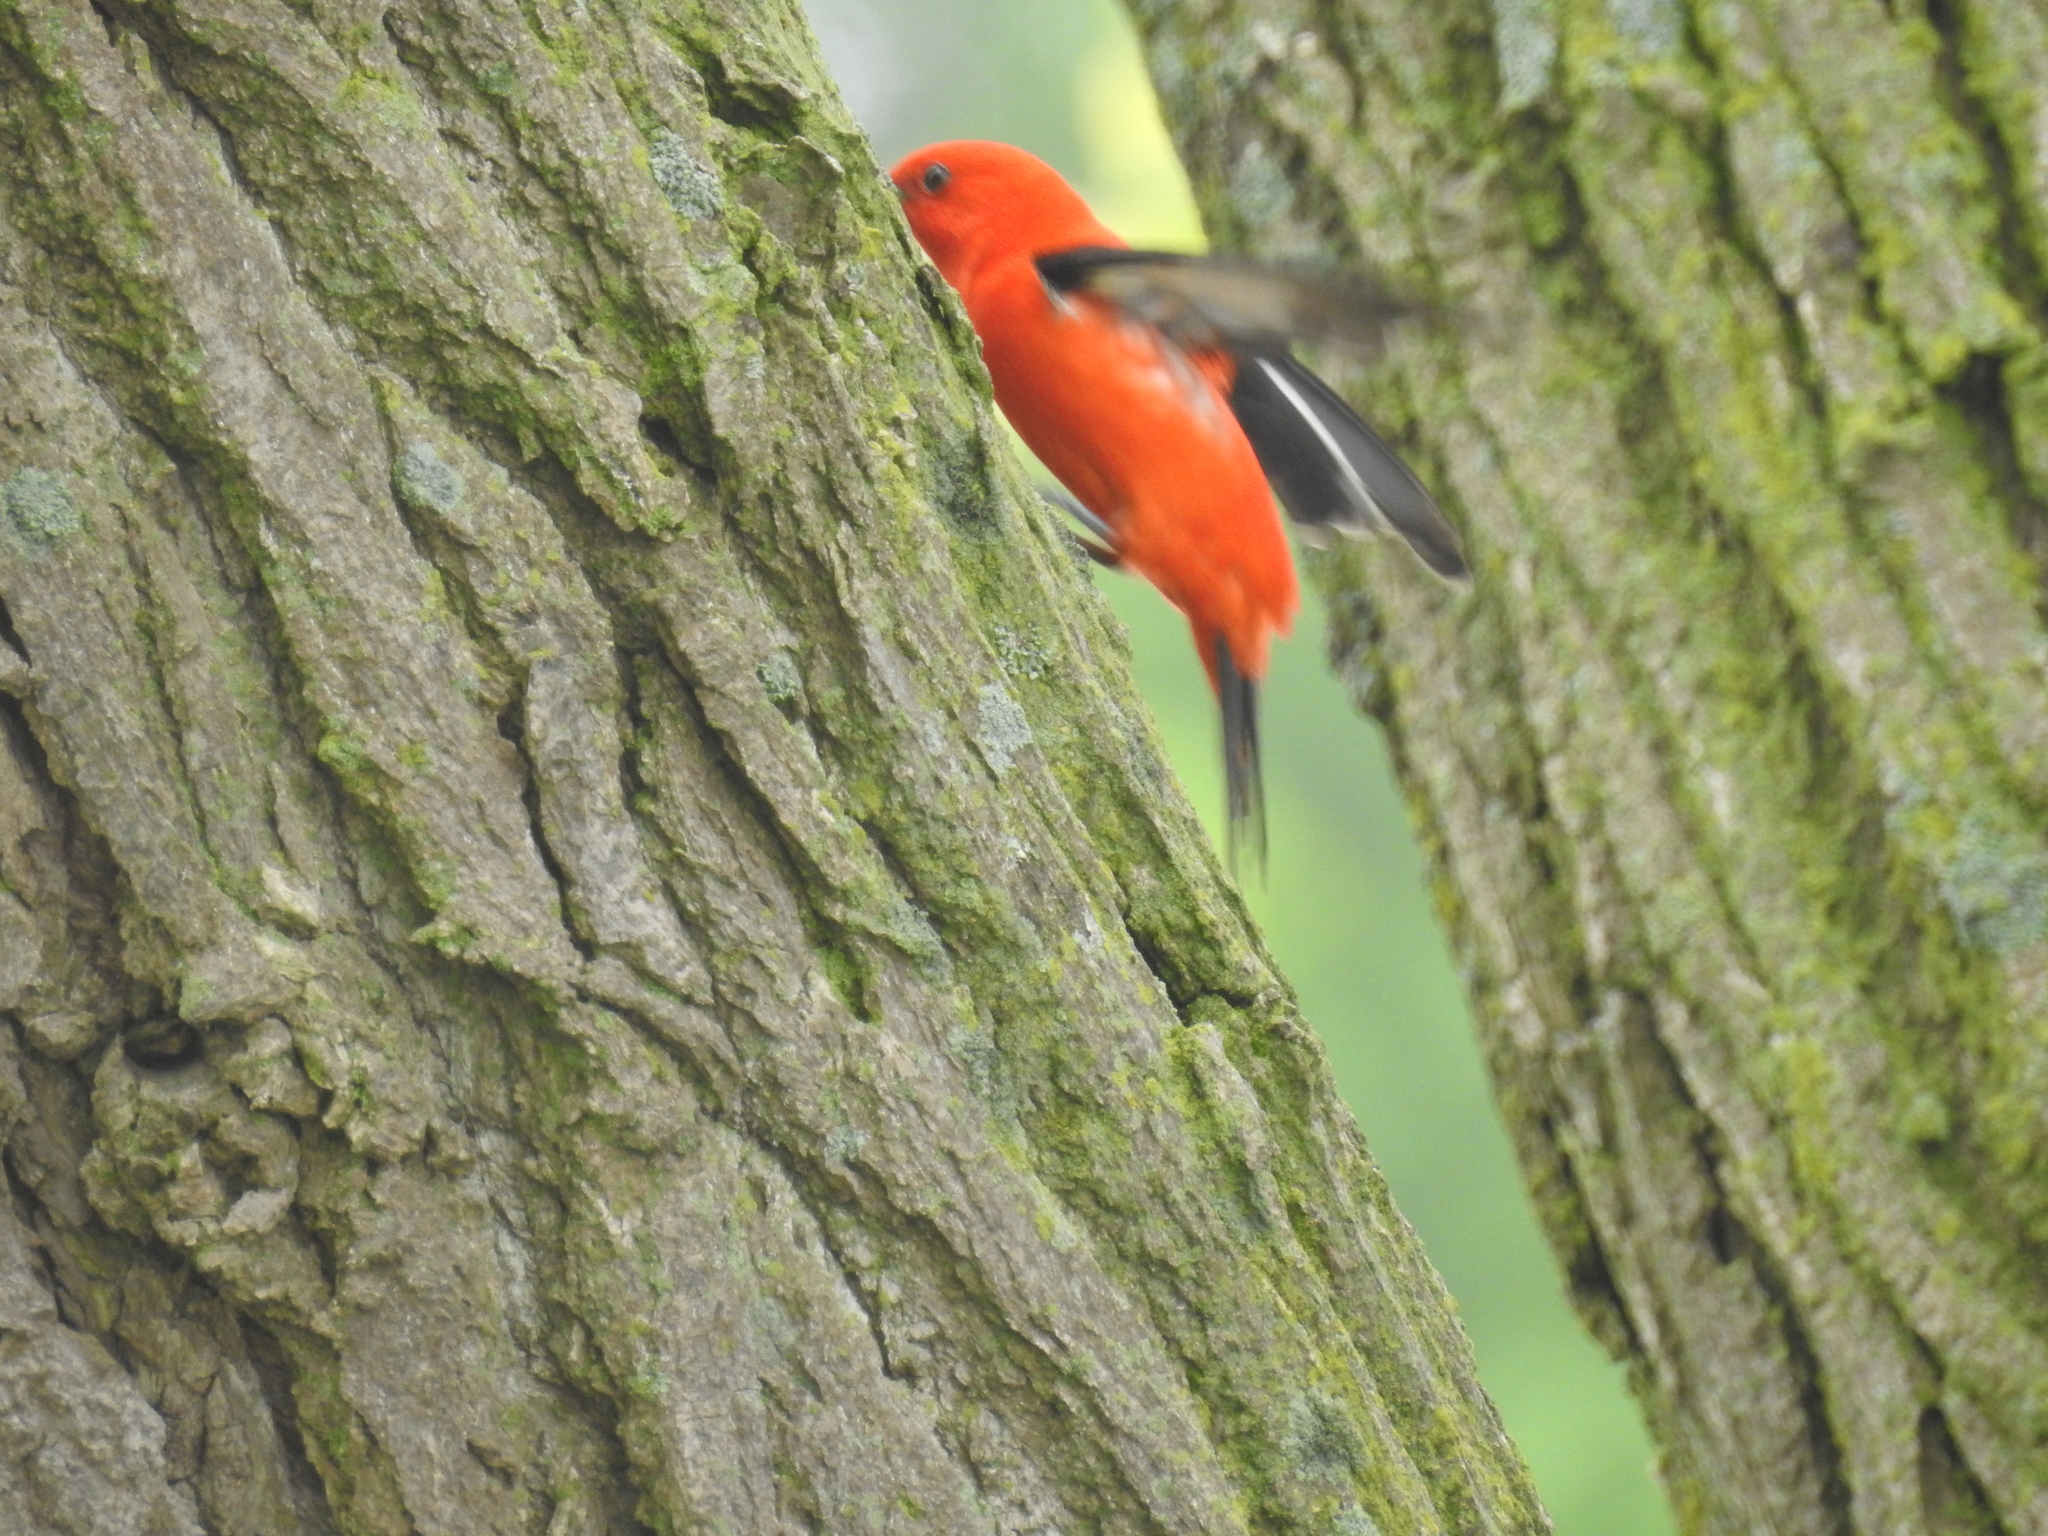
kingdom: Animalia
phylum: Chordata
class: Aves
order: Passeriformes
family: Cardinalidae
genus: Piranga
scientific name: Piranga olivacea
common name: Scarlet tanager
